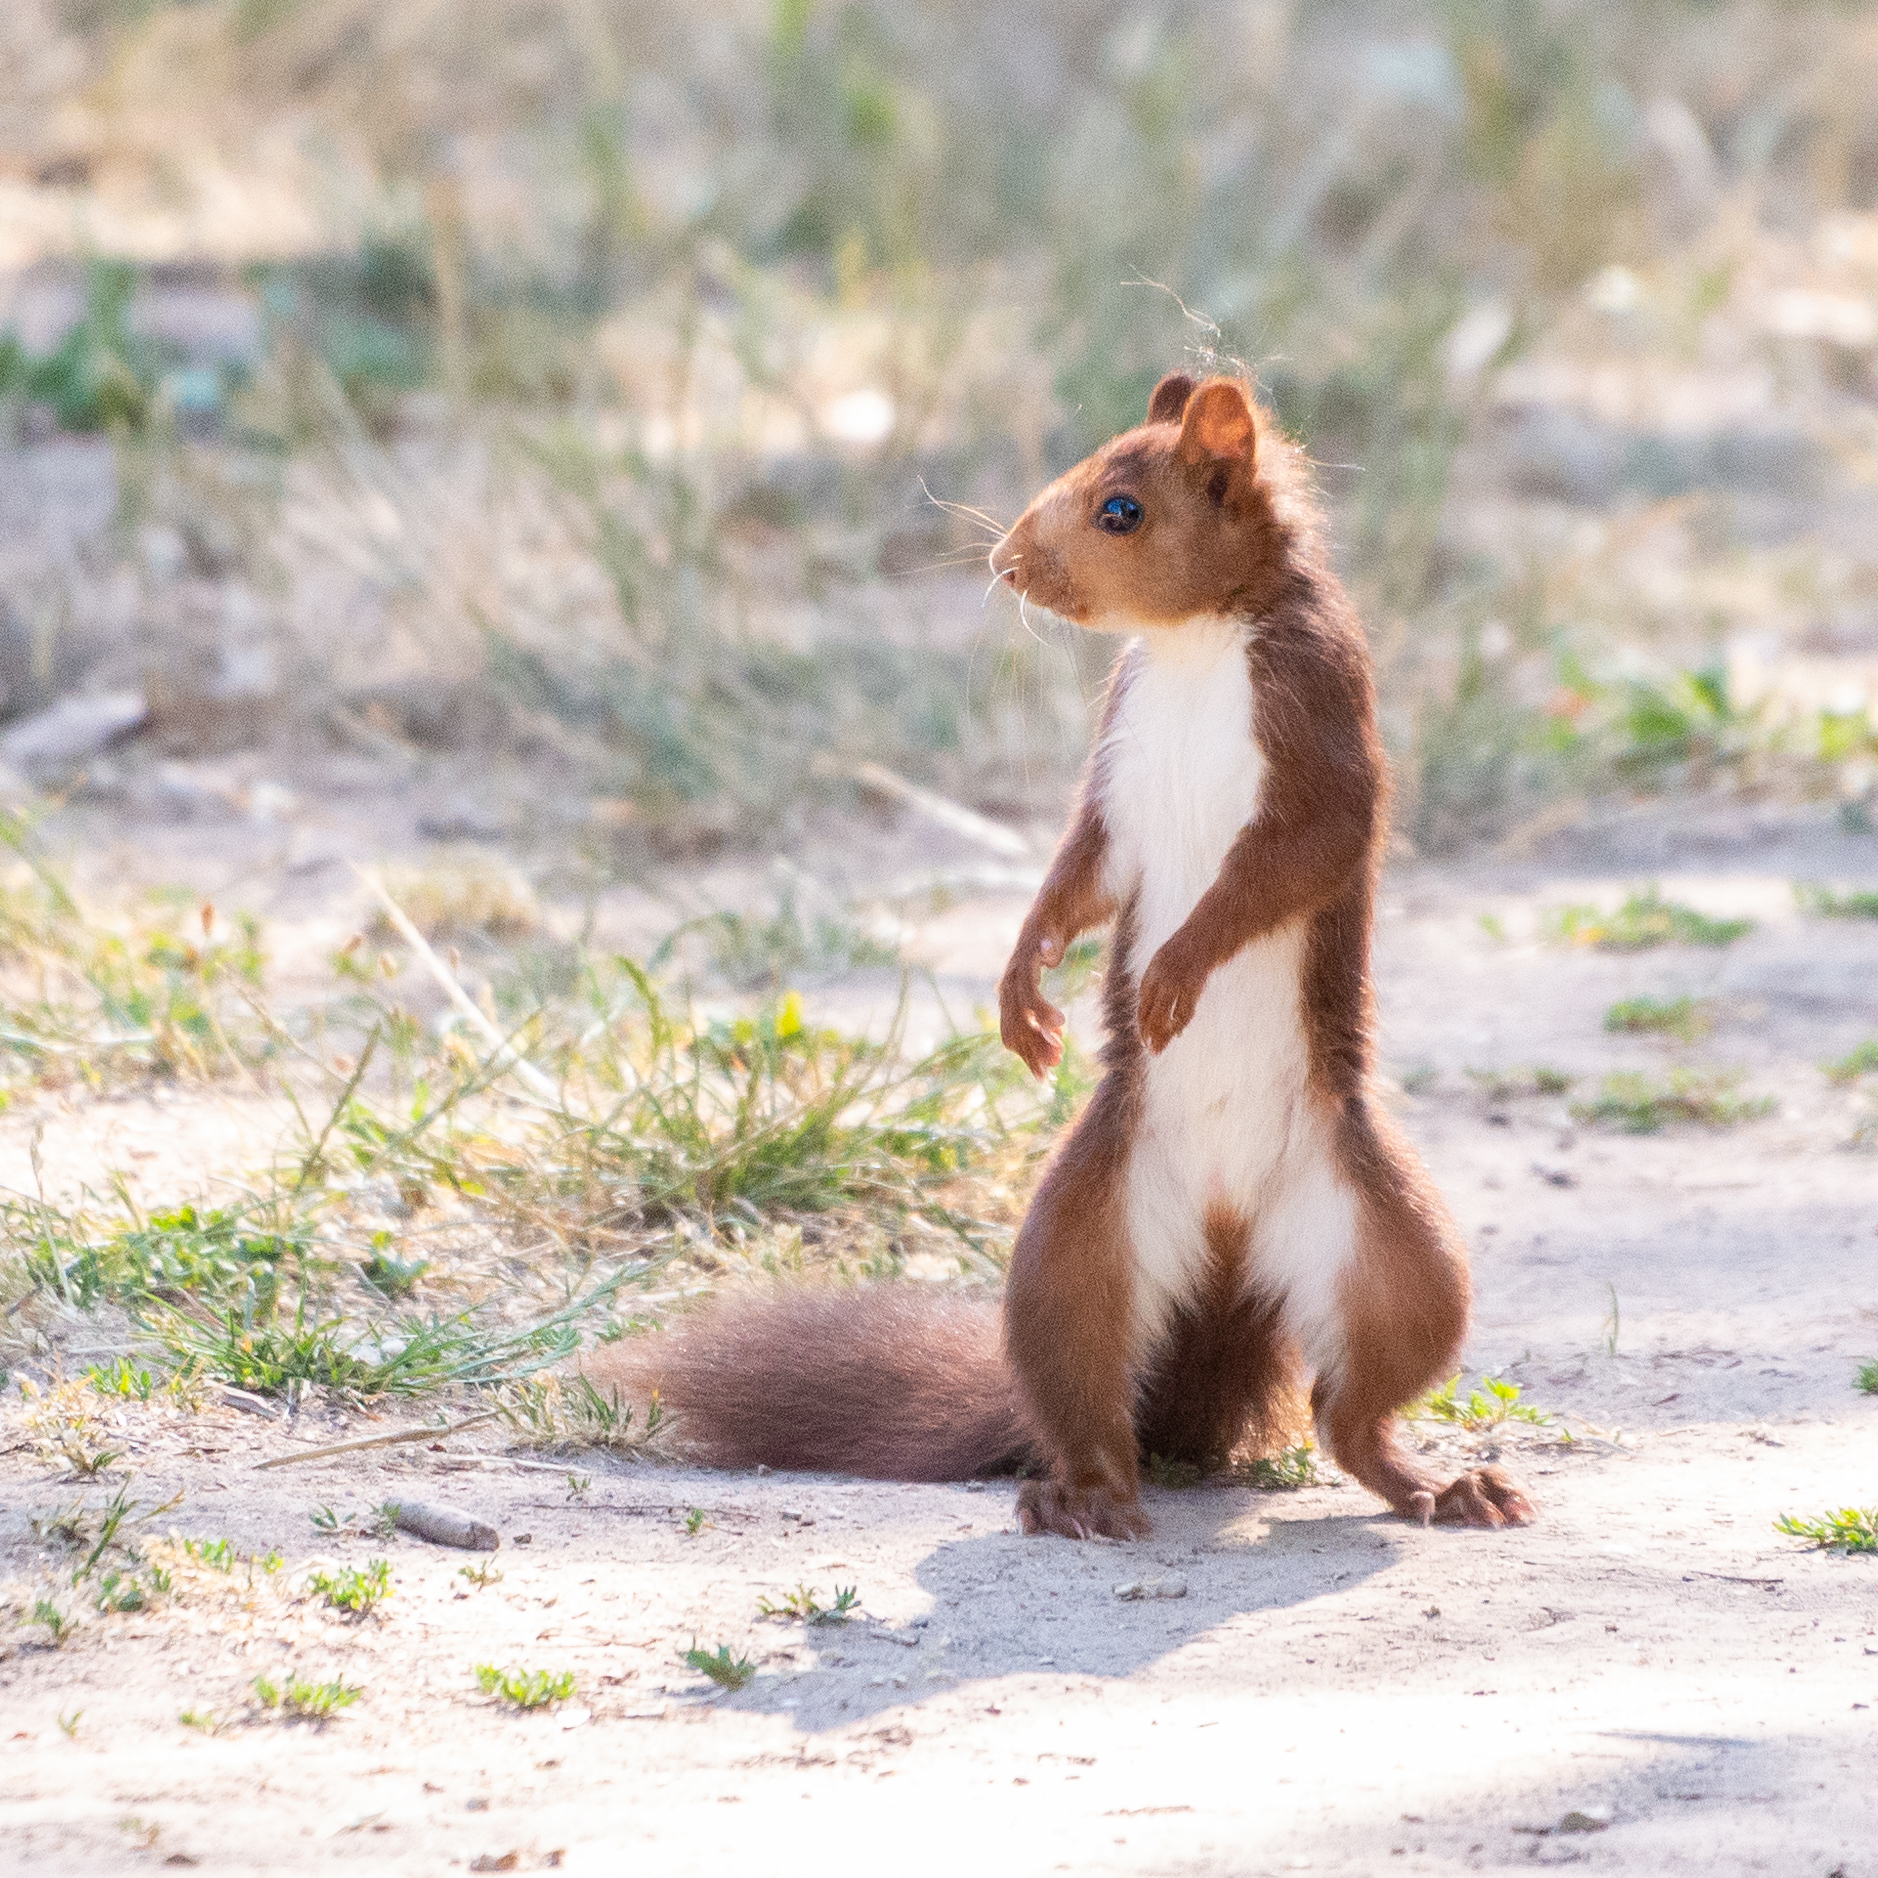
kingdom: Animalia
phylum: Chordata
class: Mammalia
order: Rodentia
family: Sciuridae
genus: Sciurus
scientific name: Sciurus vulgaris
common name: Eurasian red squirrel
